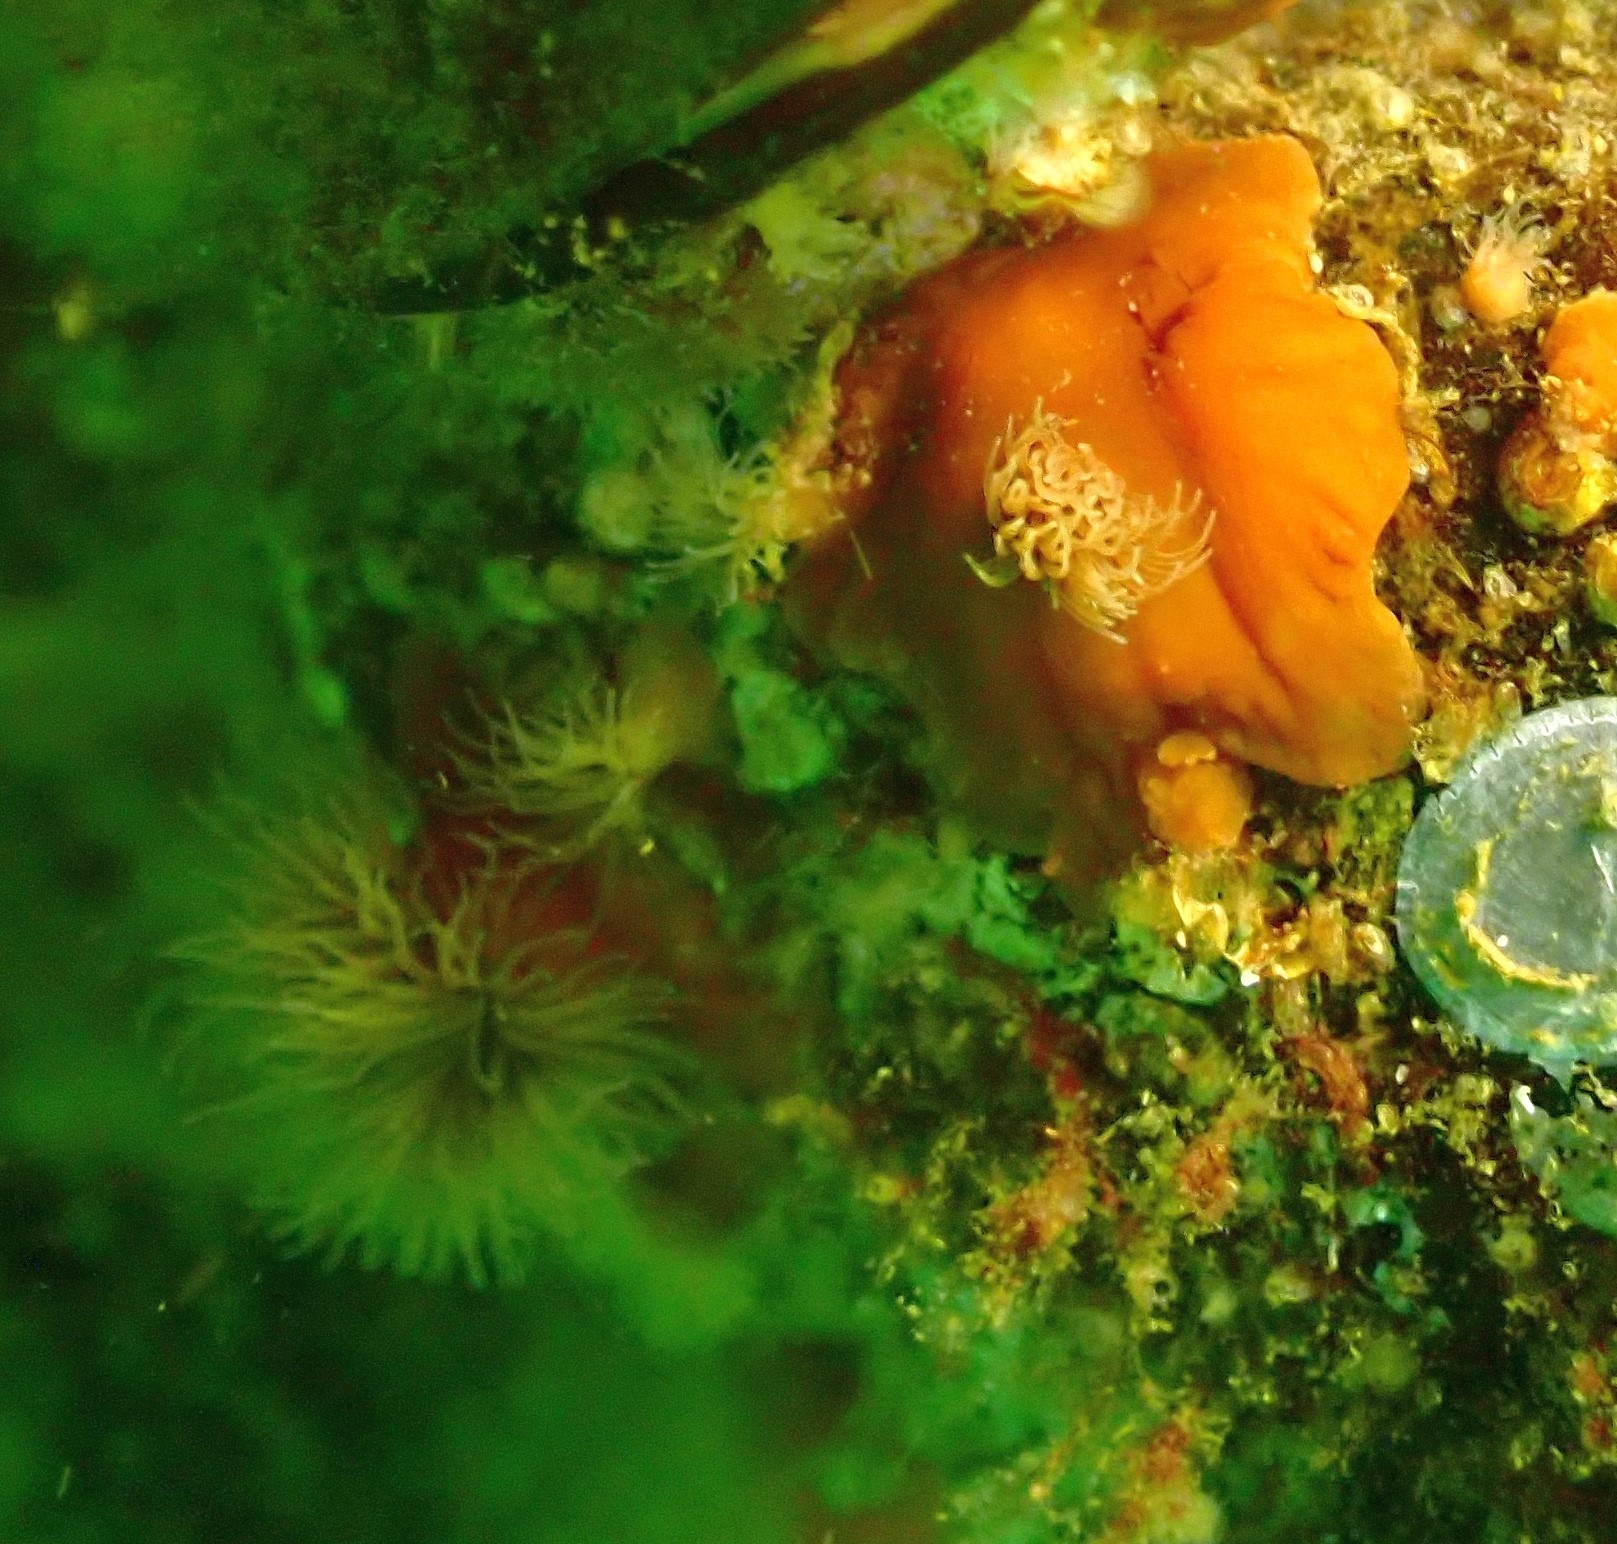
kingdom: Animalia
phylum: Cnidaria
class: Anthozoa
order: Actiniaria
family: Metridiidae
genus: Metridium
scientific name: Metridium senile
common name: Clonal plumose anemone
